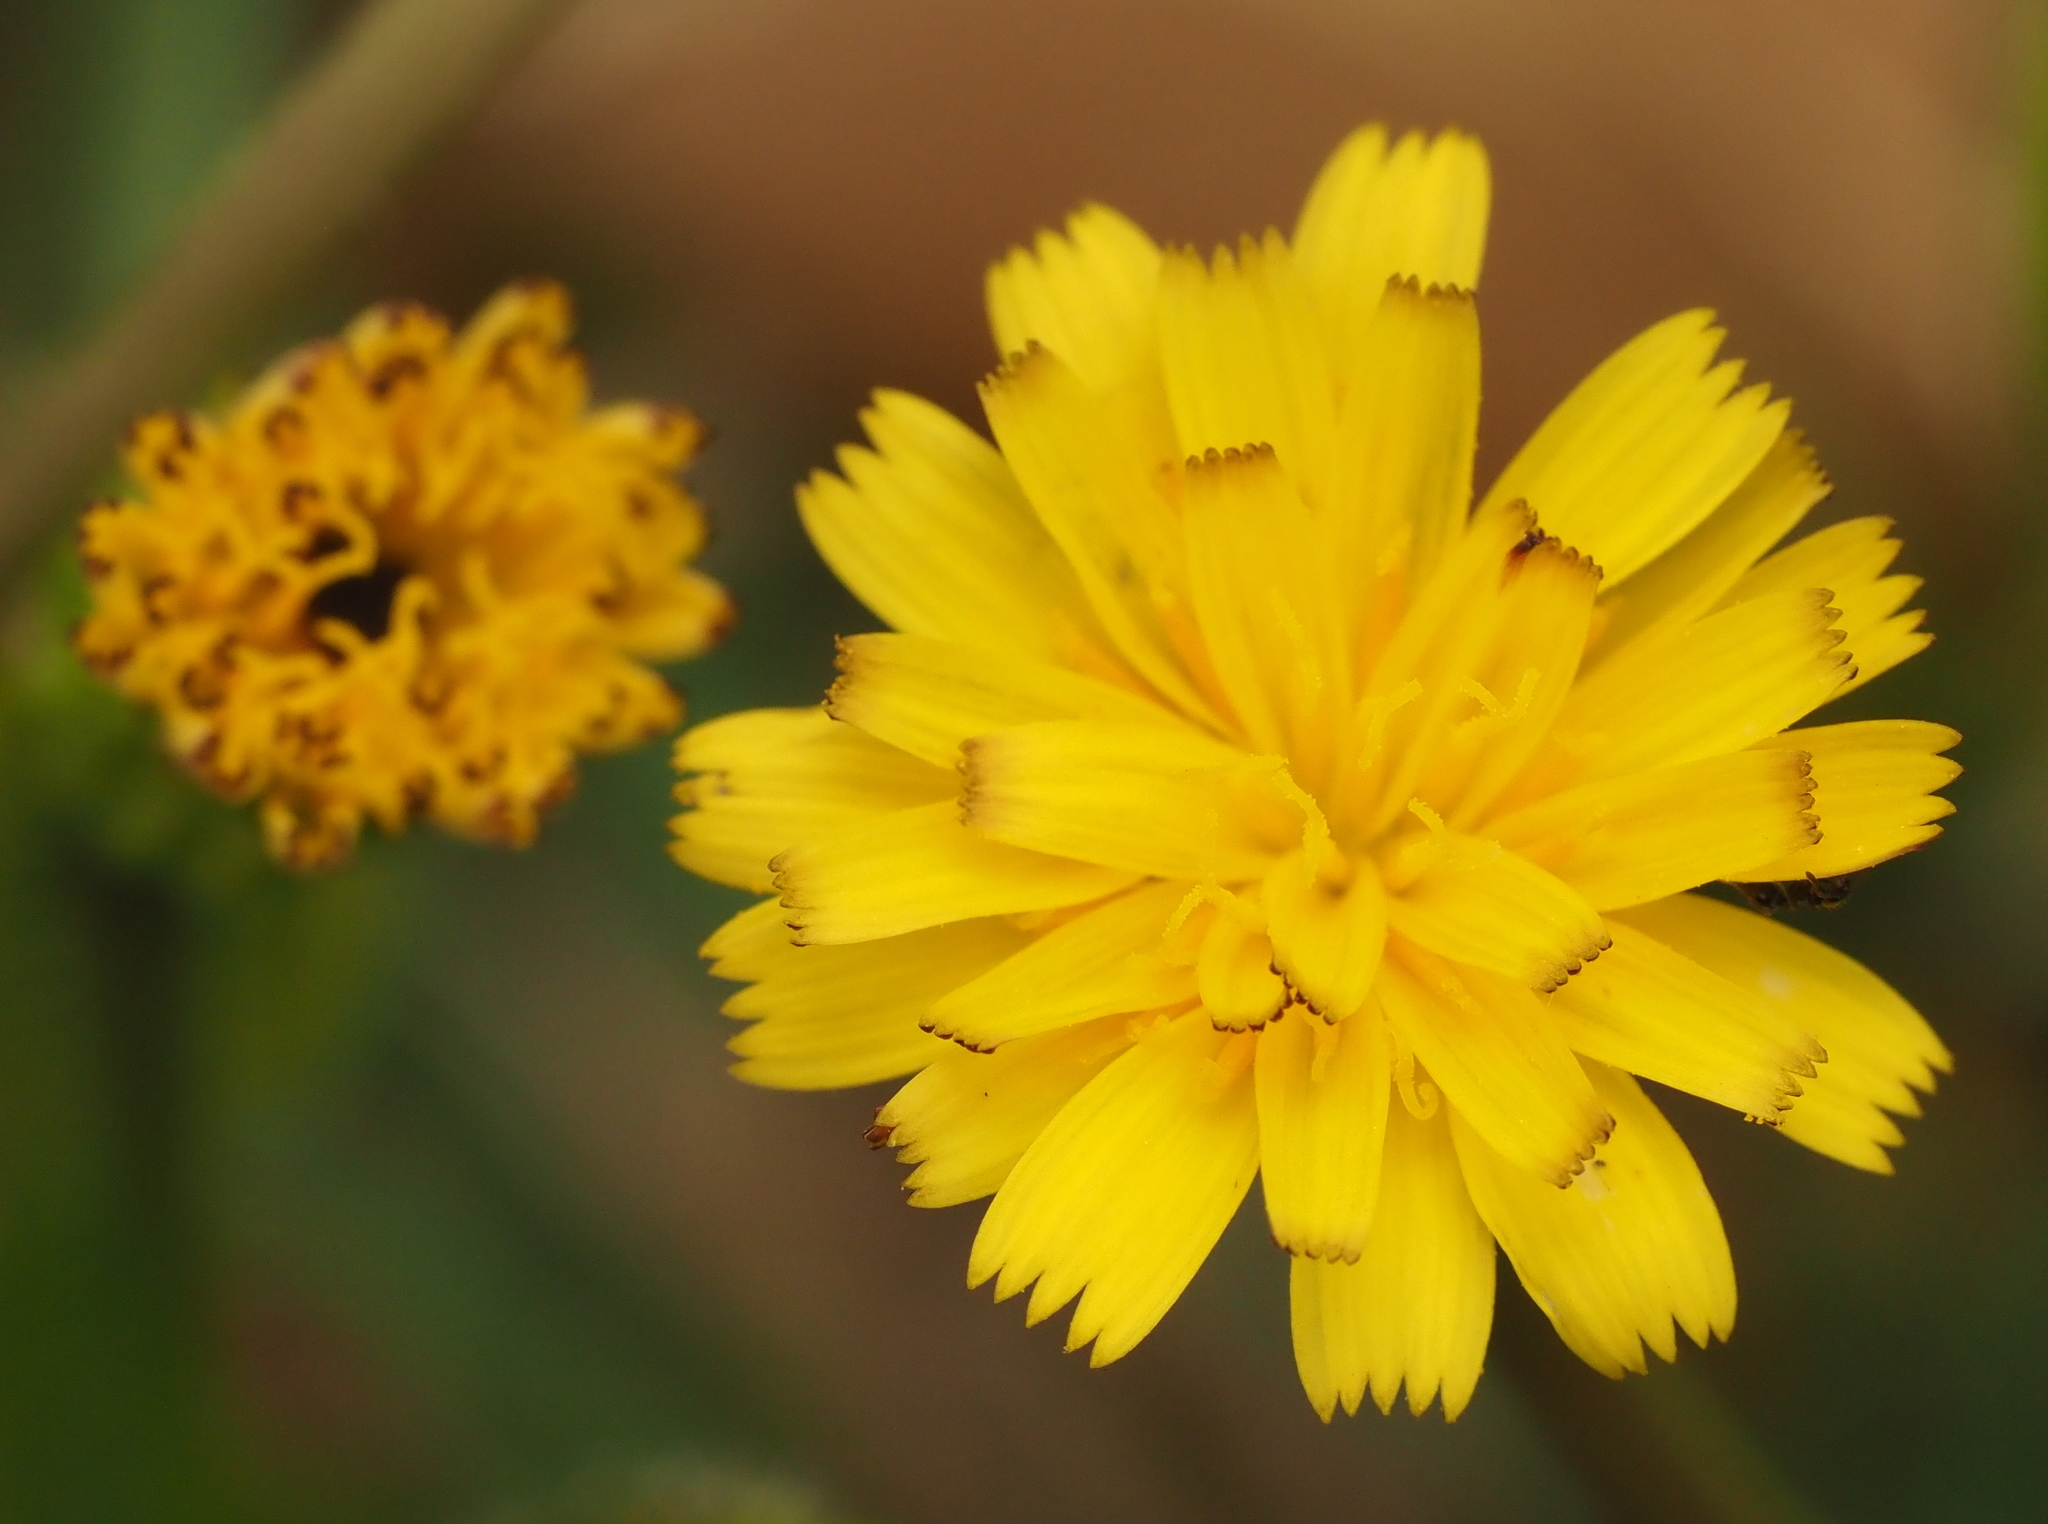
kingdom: Plantae
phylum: Tracheophyta
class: Magnoliopsida
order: Asterales
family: Asteraceae
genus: Hedypnois
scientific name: Hedypnois rhagadioloides
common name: Cretan weed
